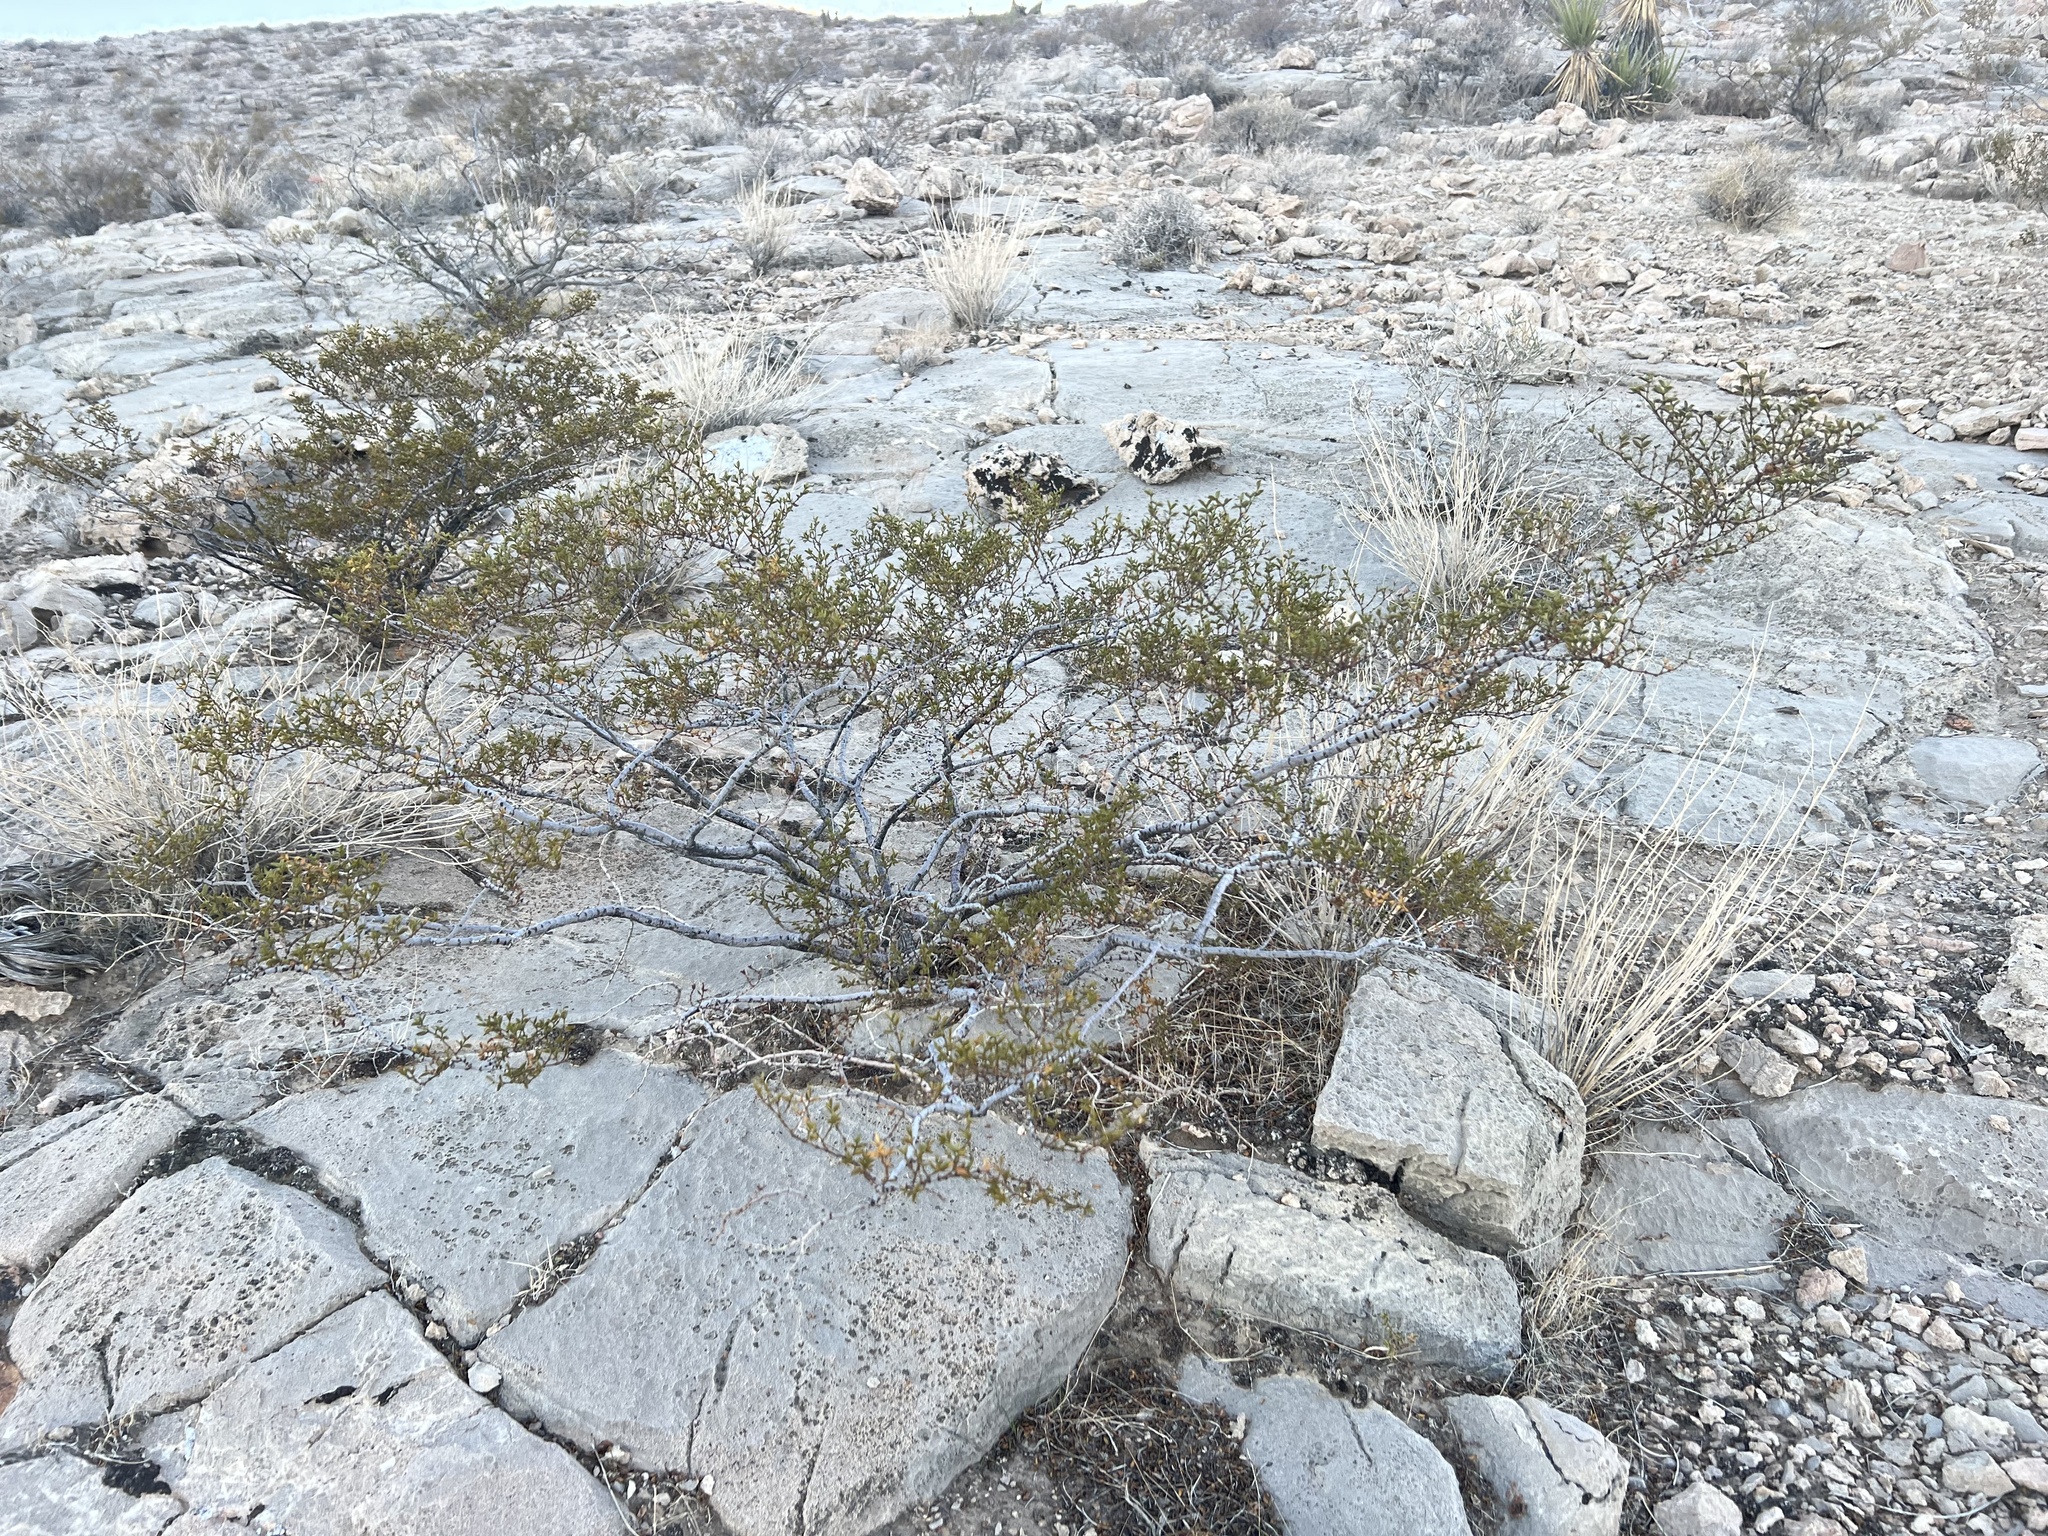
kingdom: Plantae
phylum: Tracheophyta
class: Magnoliopsida
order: Zygophyllales
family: Zygophyllaceae
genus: Larrea
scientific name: Larrea tridentata
